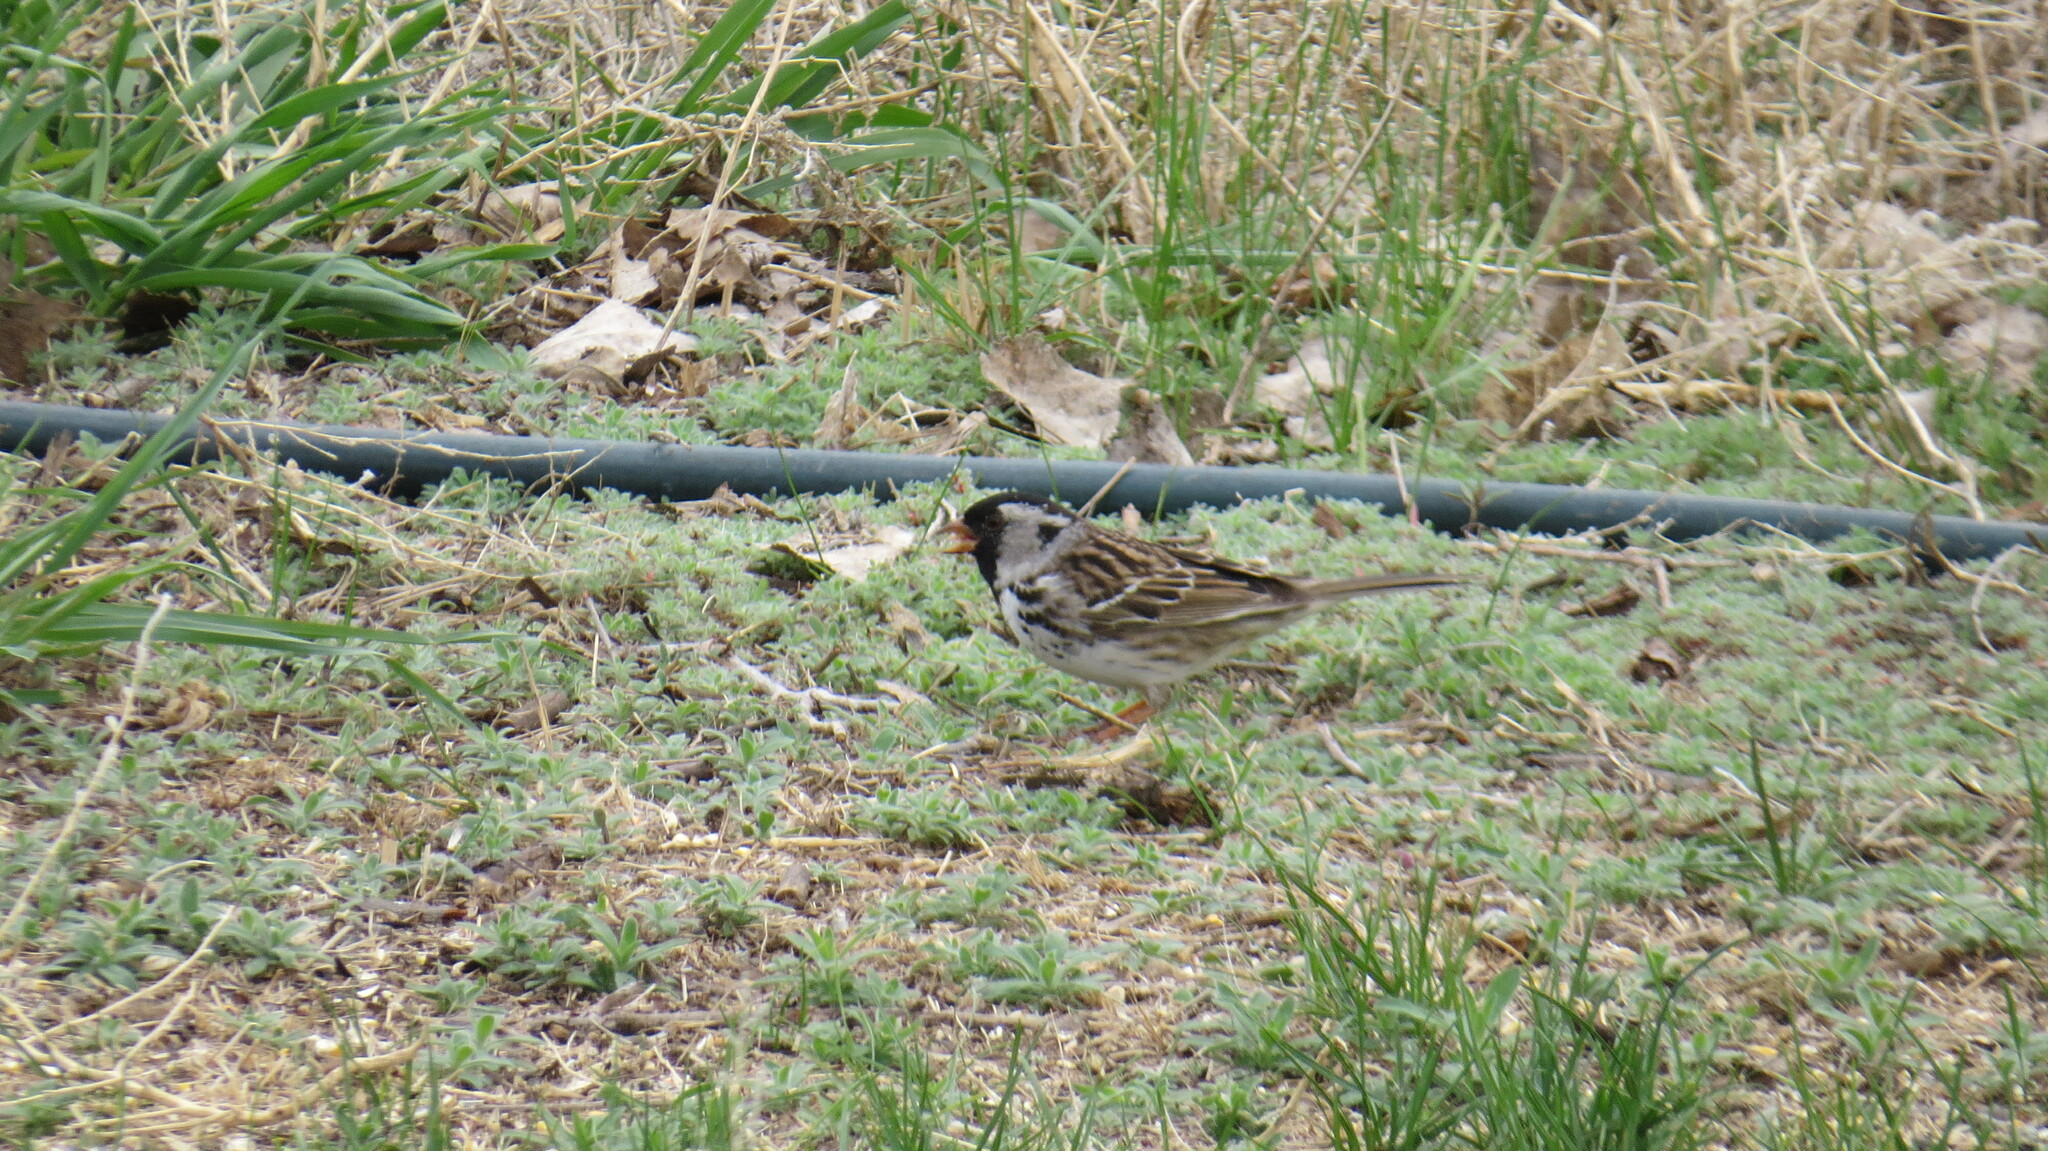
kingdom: Animalia
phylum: Chordata
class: Aves
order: Passeriformes
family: Passerellidae
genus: Zonotrichia
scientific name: Zonotrichia querula
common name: Harris's sparrow
